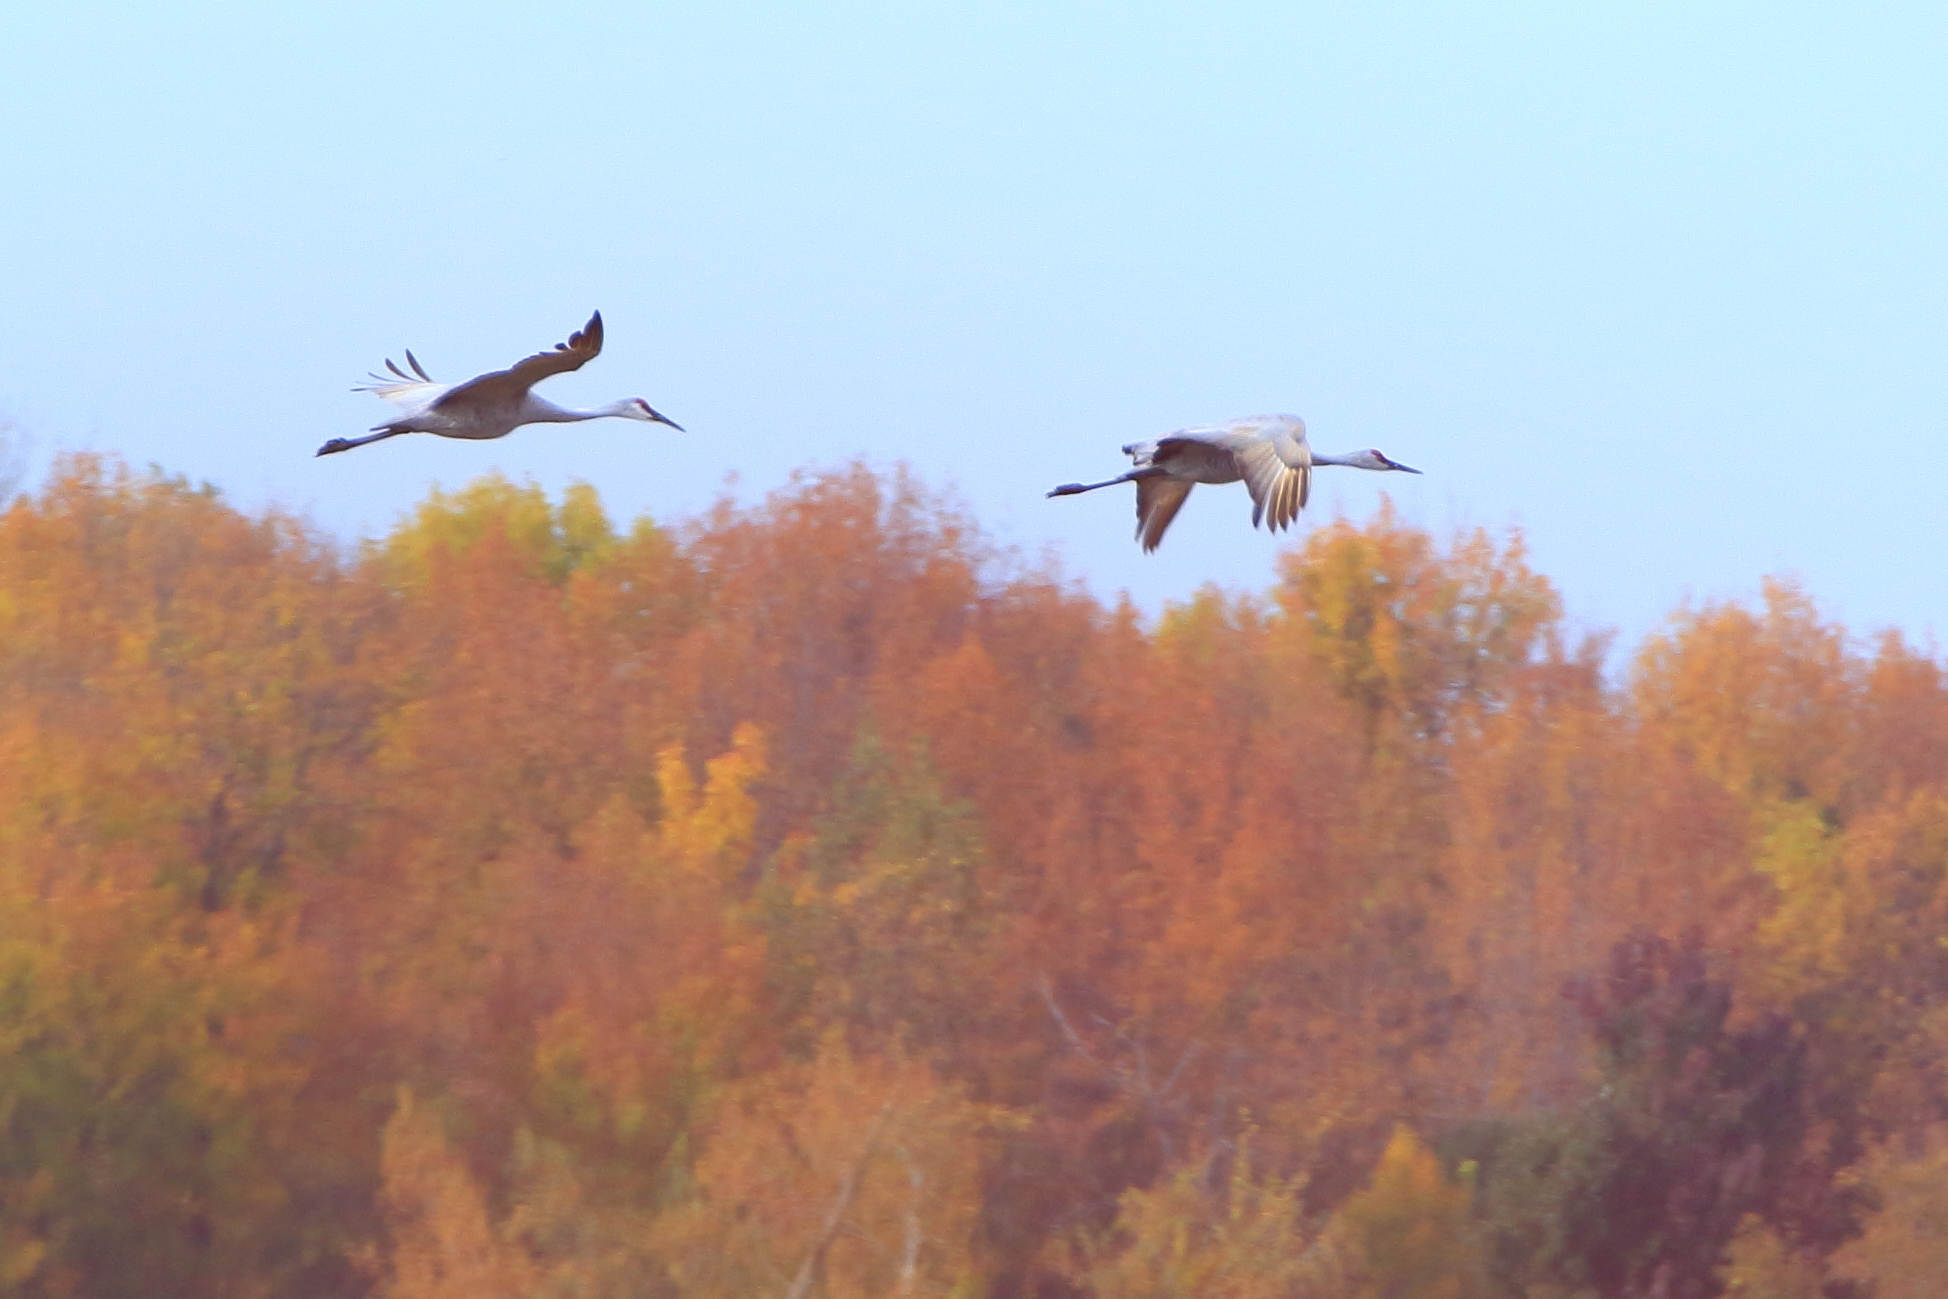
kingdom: Animalia
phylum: Chordata
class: Aves
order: Gruiformes
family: Gruidae
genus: Grus
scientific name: Grus canadensis
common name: Sandhill crane
